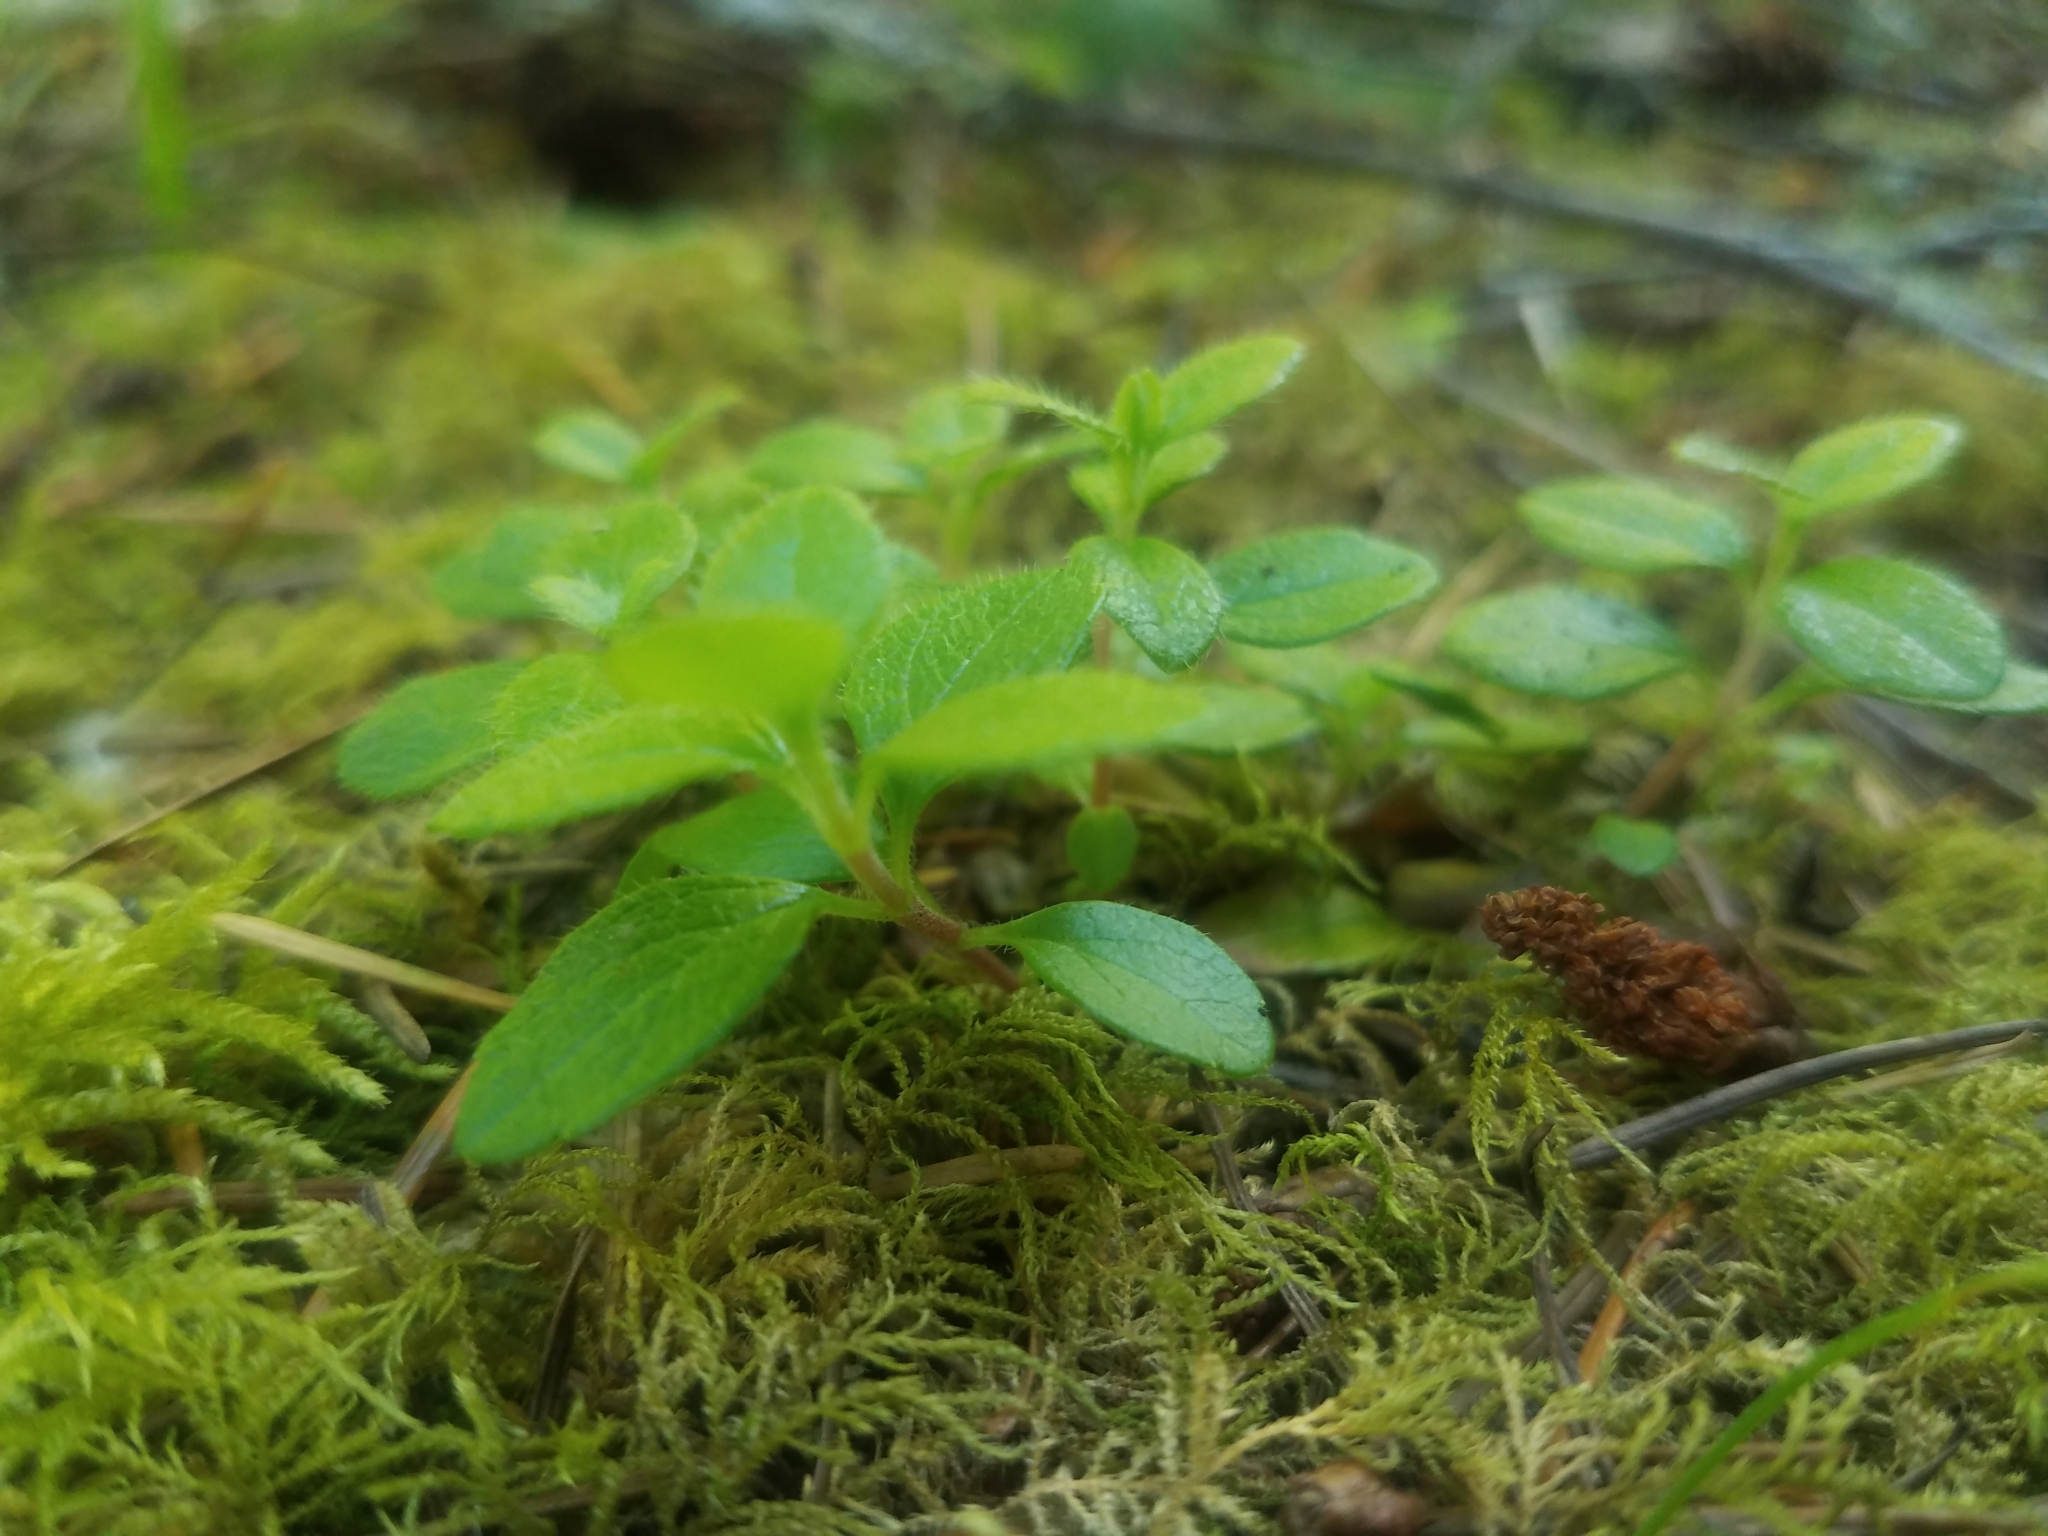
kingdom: Plantae
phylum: Tracheophyta
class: Magnoliopsida
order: Dipsacales
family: Caprifoliaceae
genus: Linnaea
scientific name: Linnaea borealis
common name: Twinflower
